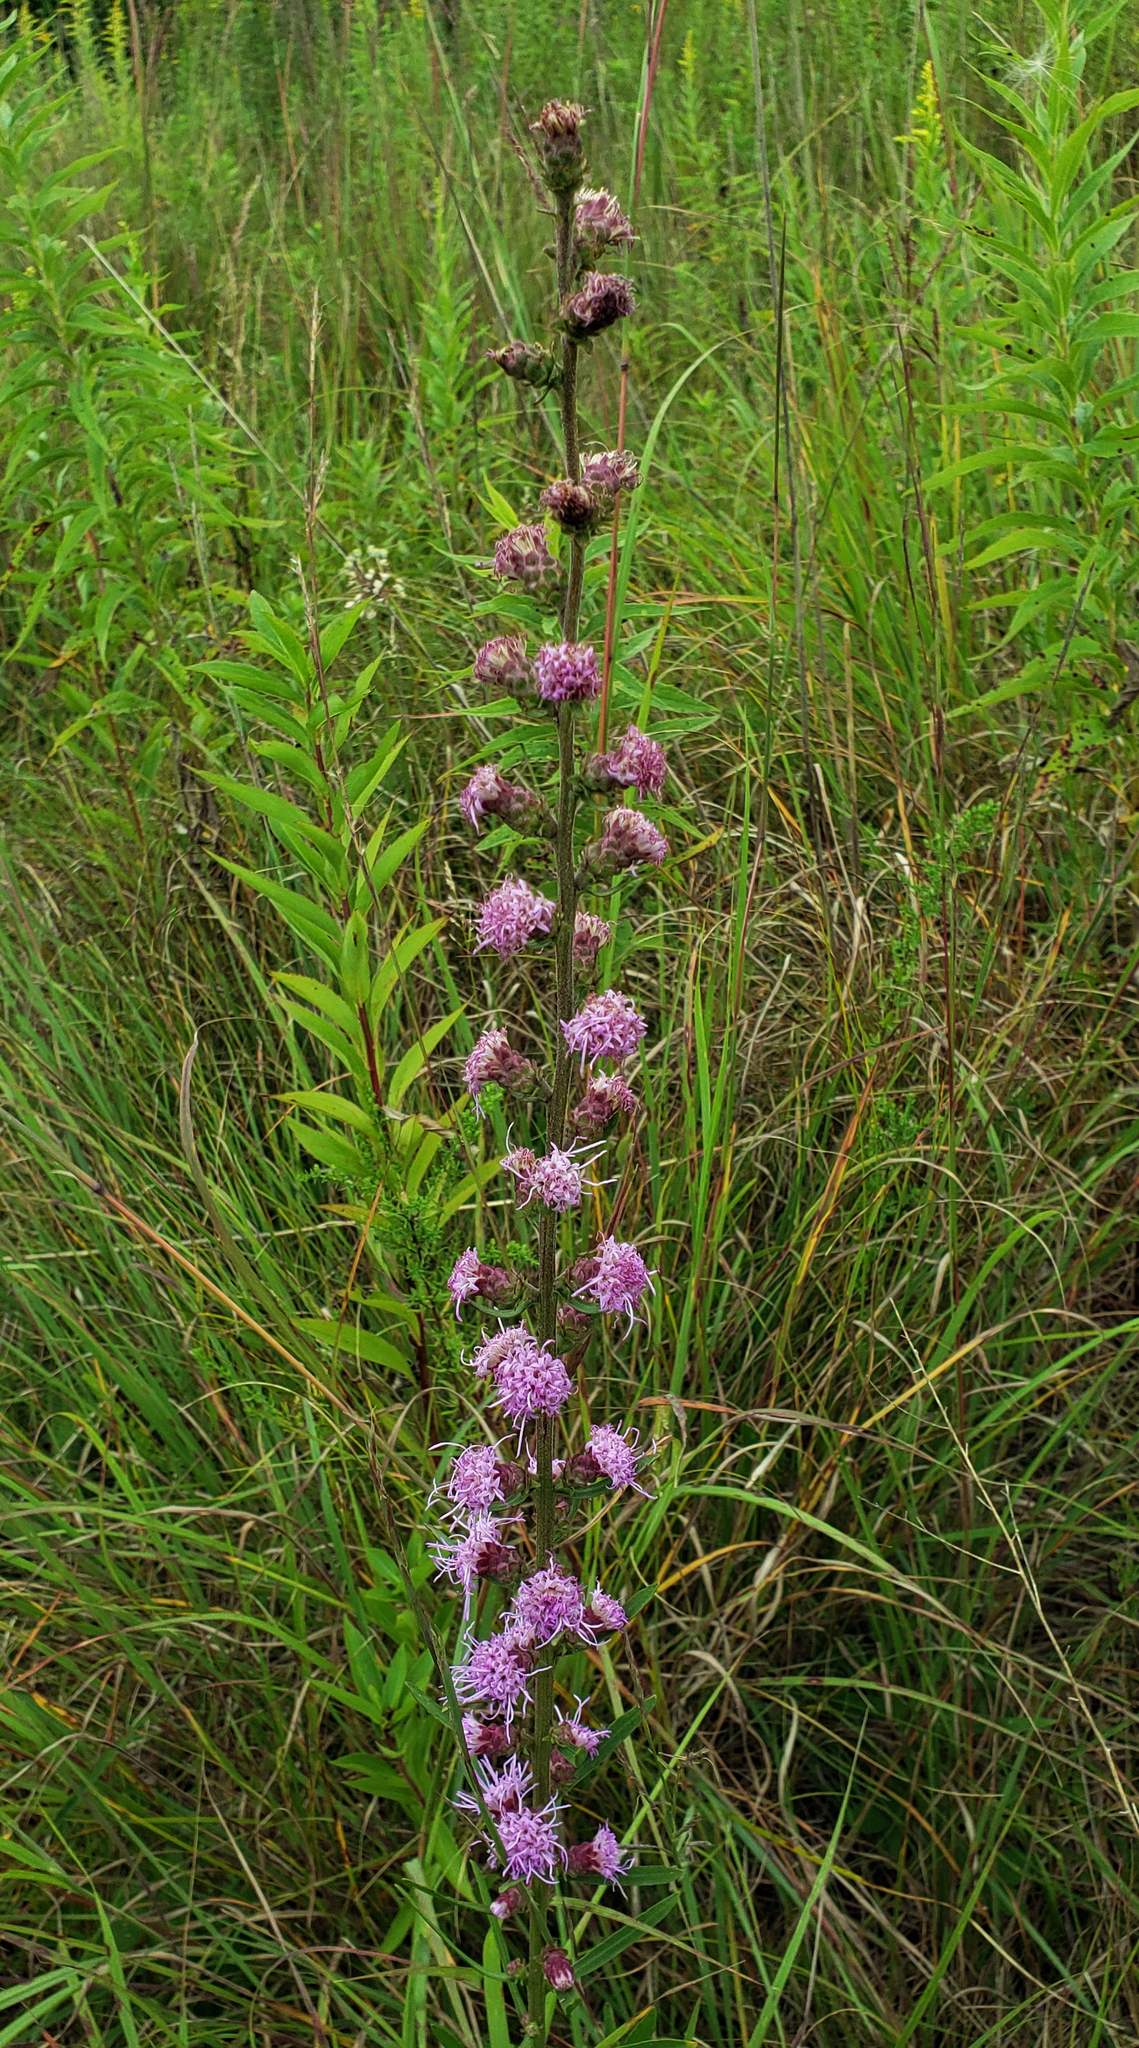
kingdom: Plantae
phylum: Tracheophyta
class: Magnoliopsida
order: Asterales
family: Asteraceae
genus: Liatris
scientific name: Liatris aspera
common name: Lacerate blazing-star
